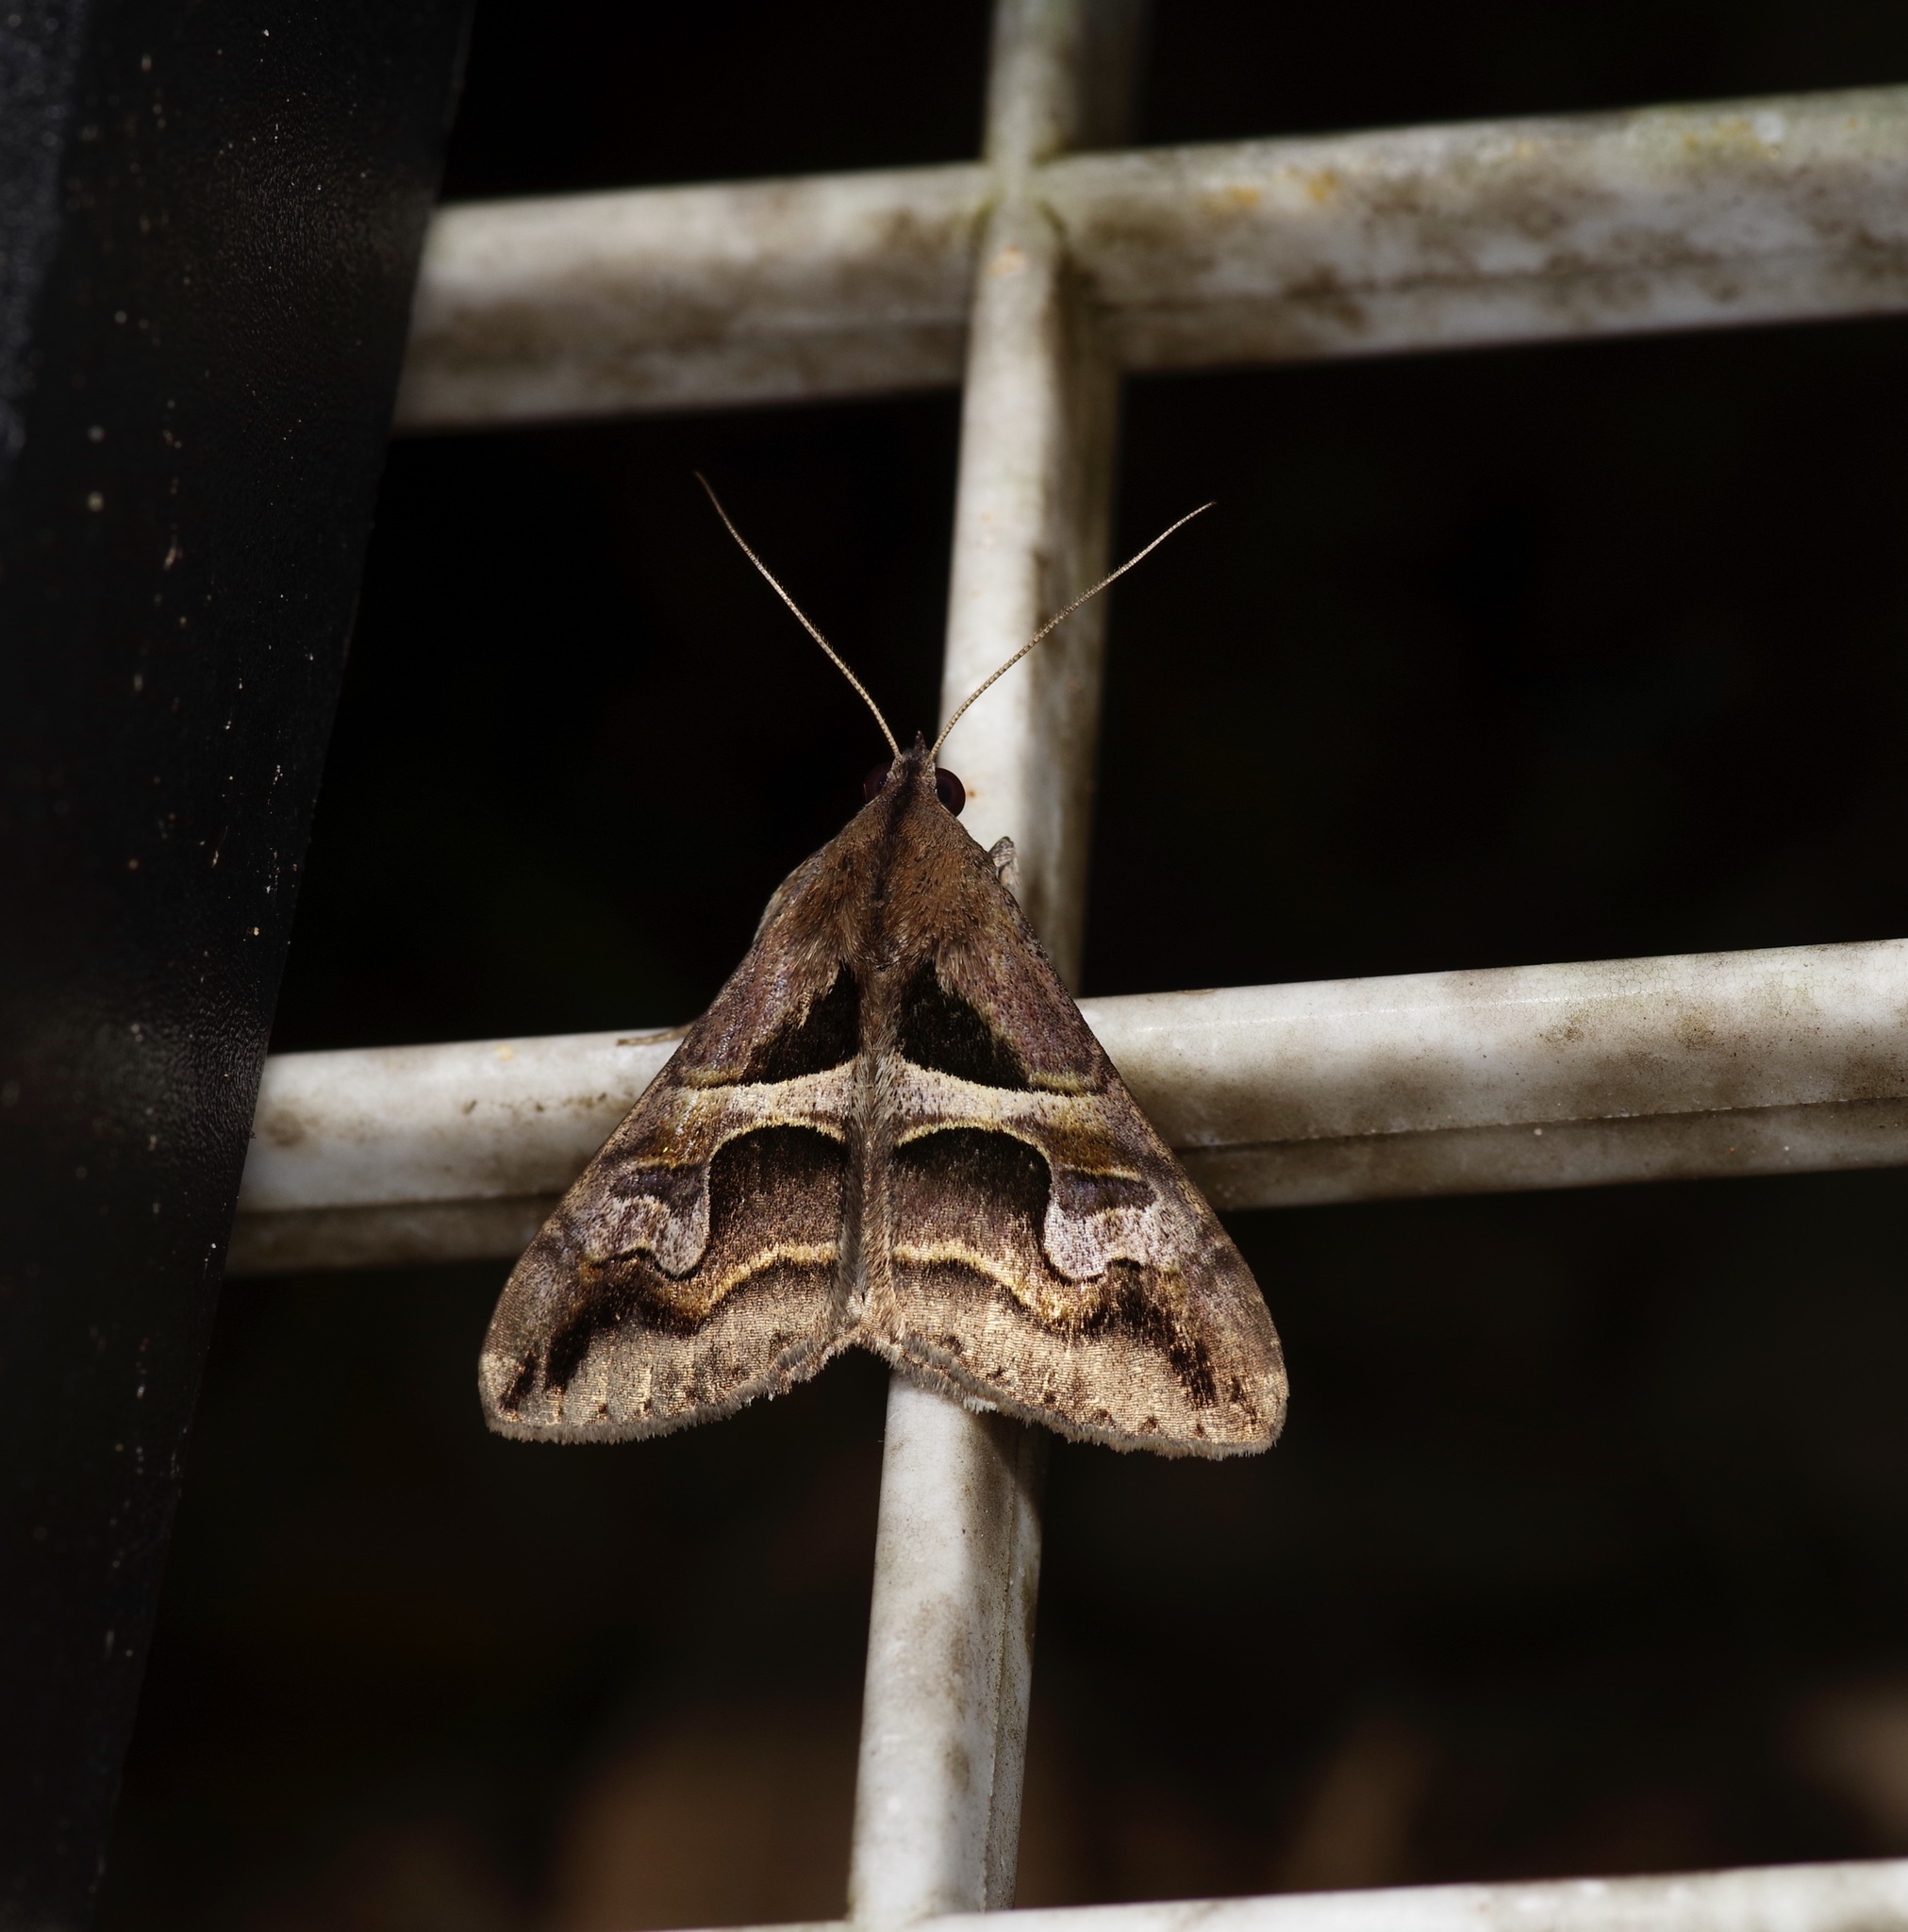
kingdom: Animalia
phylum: Arthropoda
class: Insecta
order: Lepidoptera
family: Erebidae
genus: Melipotis
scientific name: Melipotis cellaris
